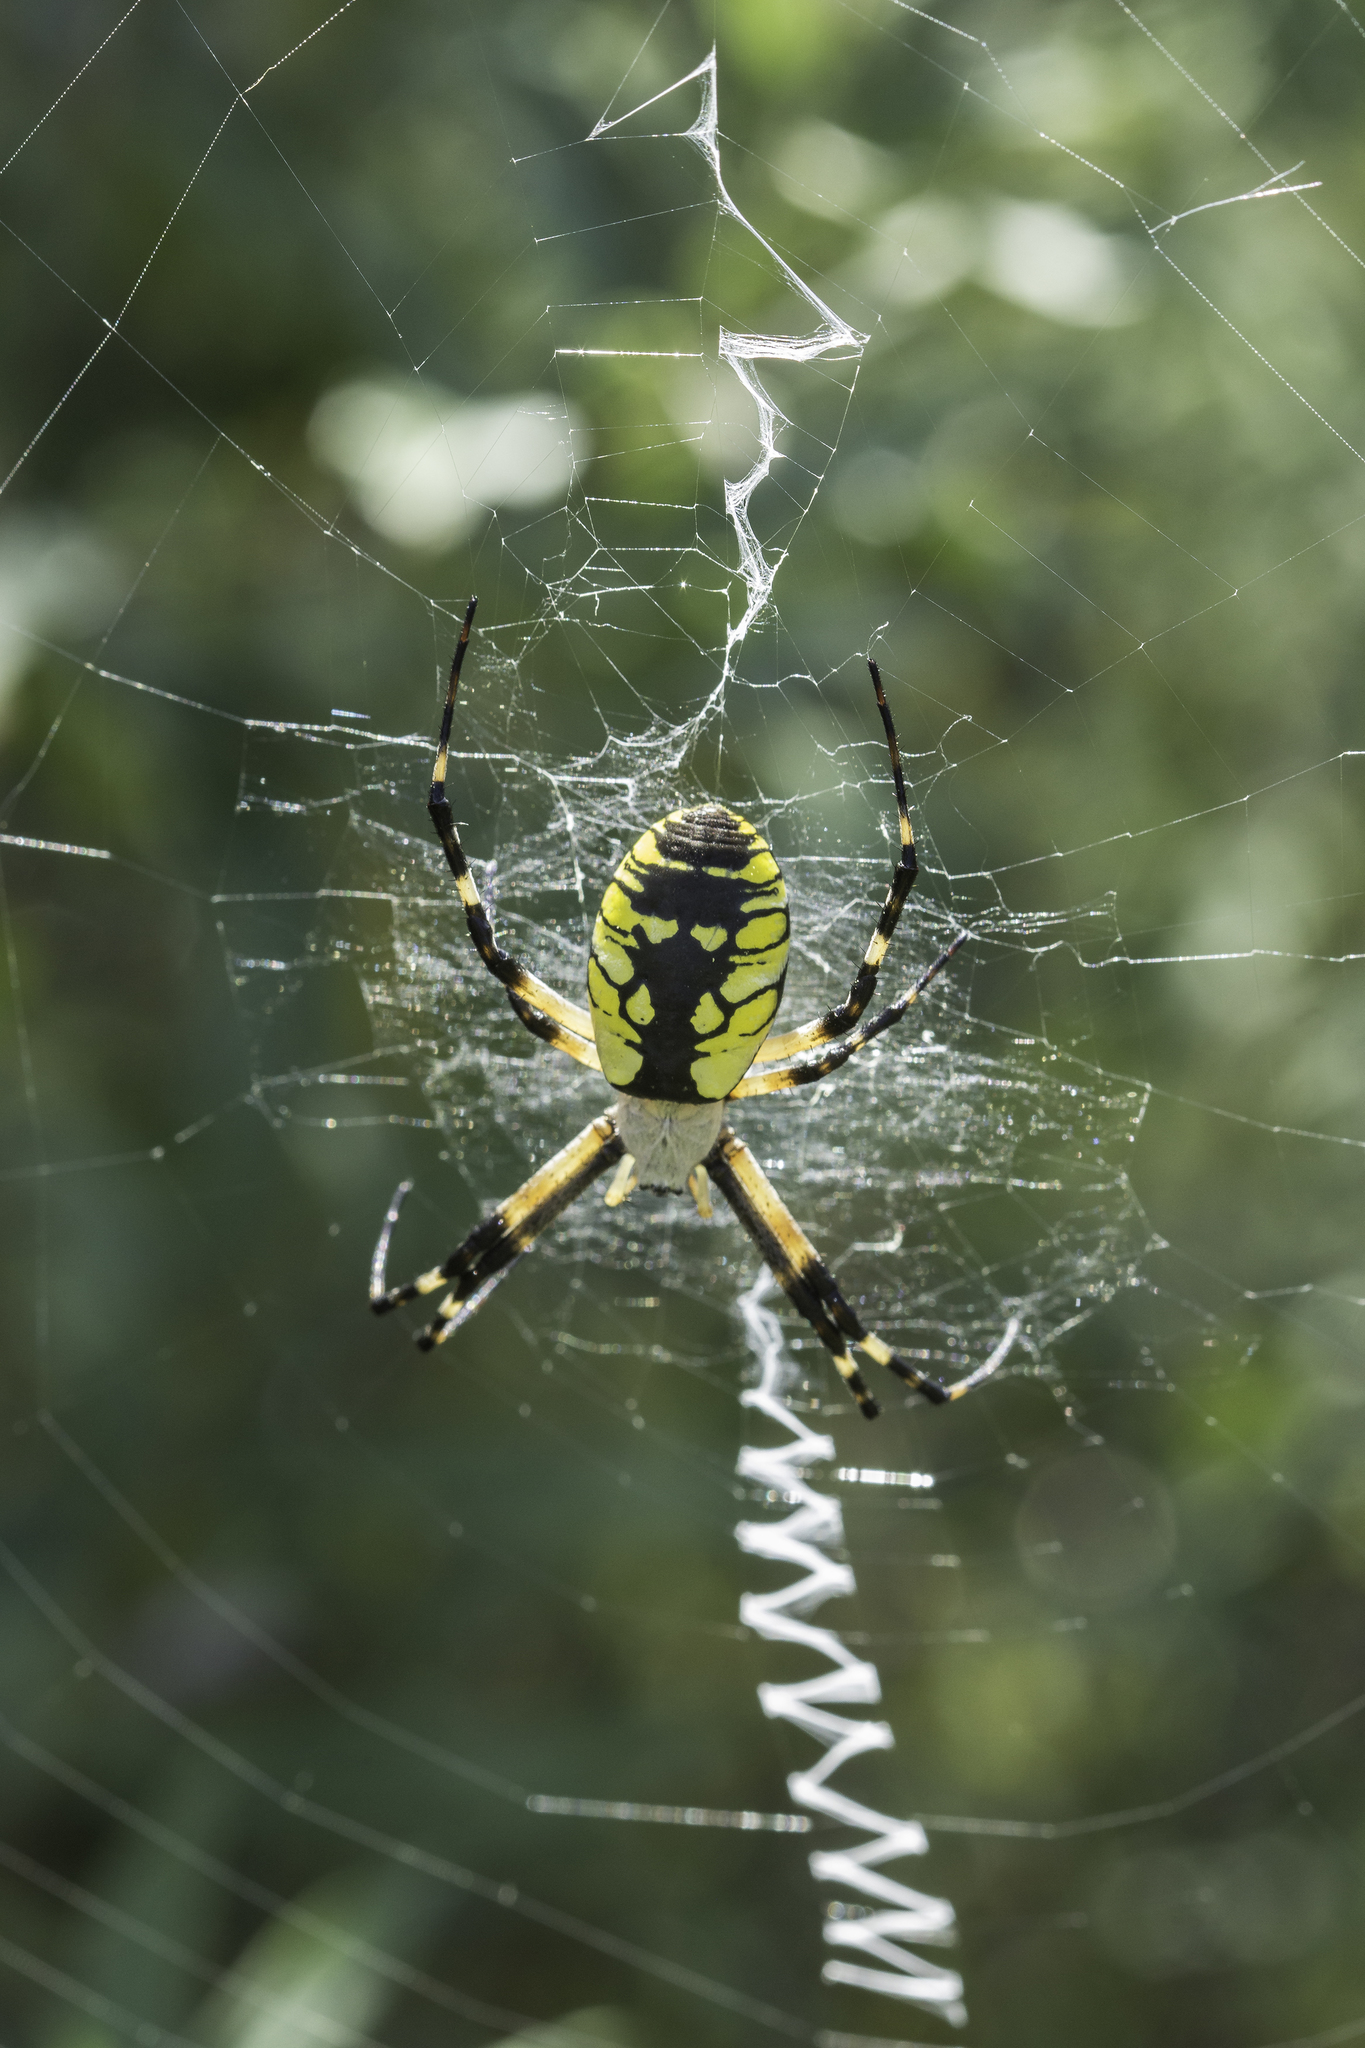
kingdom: Animalia
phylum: Arthropoda
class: Arachnida
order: Araneae
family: Araneidae
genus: Argiope
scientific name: Argiope aurantia
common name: Orb weavers
